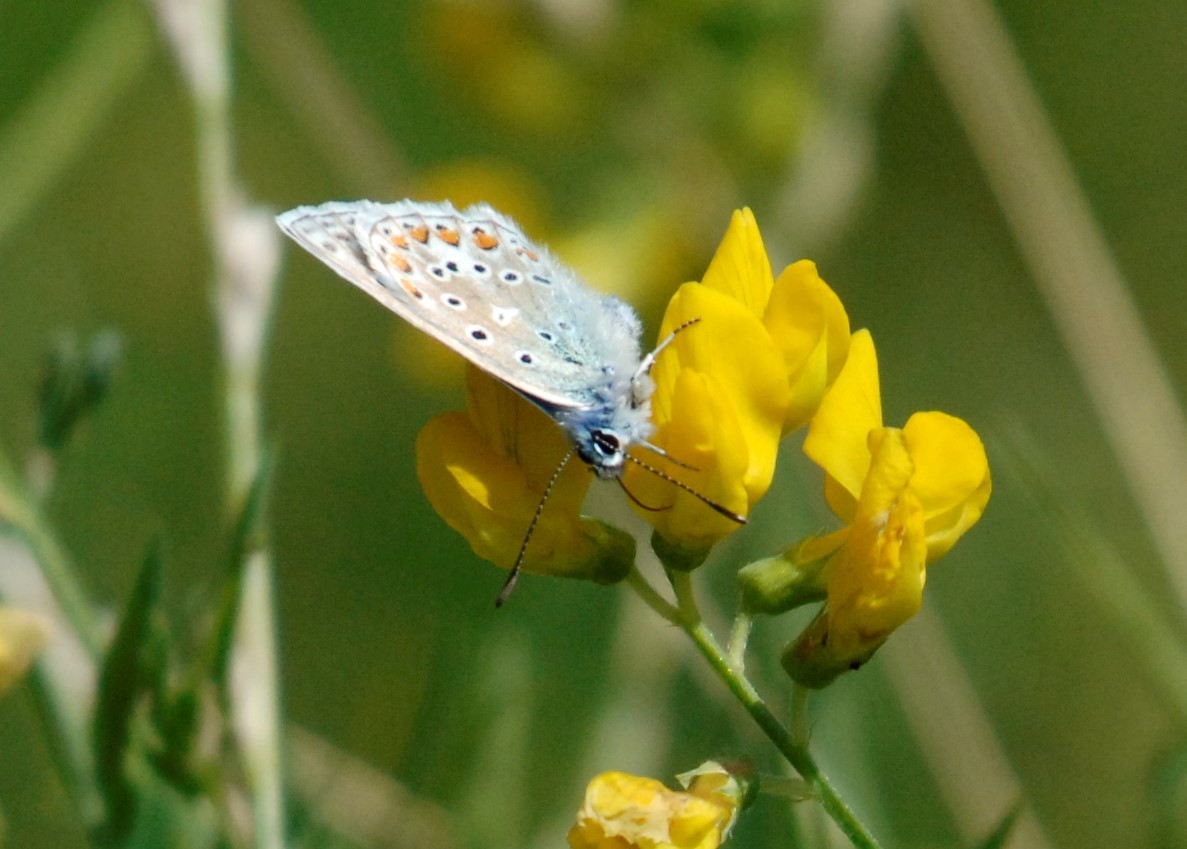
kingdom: Animalia
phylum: Arthropoda
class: Insecta
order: Lepidoptera
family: Lycaenidae
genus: Polyommatus
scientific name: Polyommatus icarus
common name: Common blue
